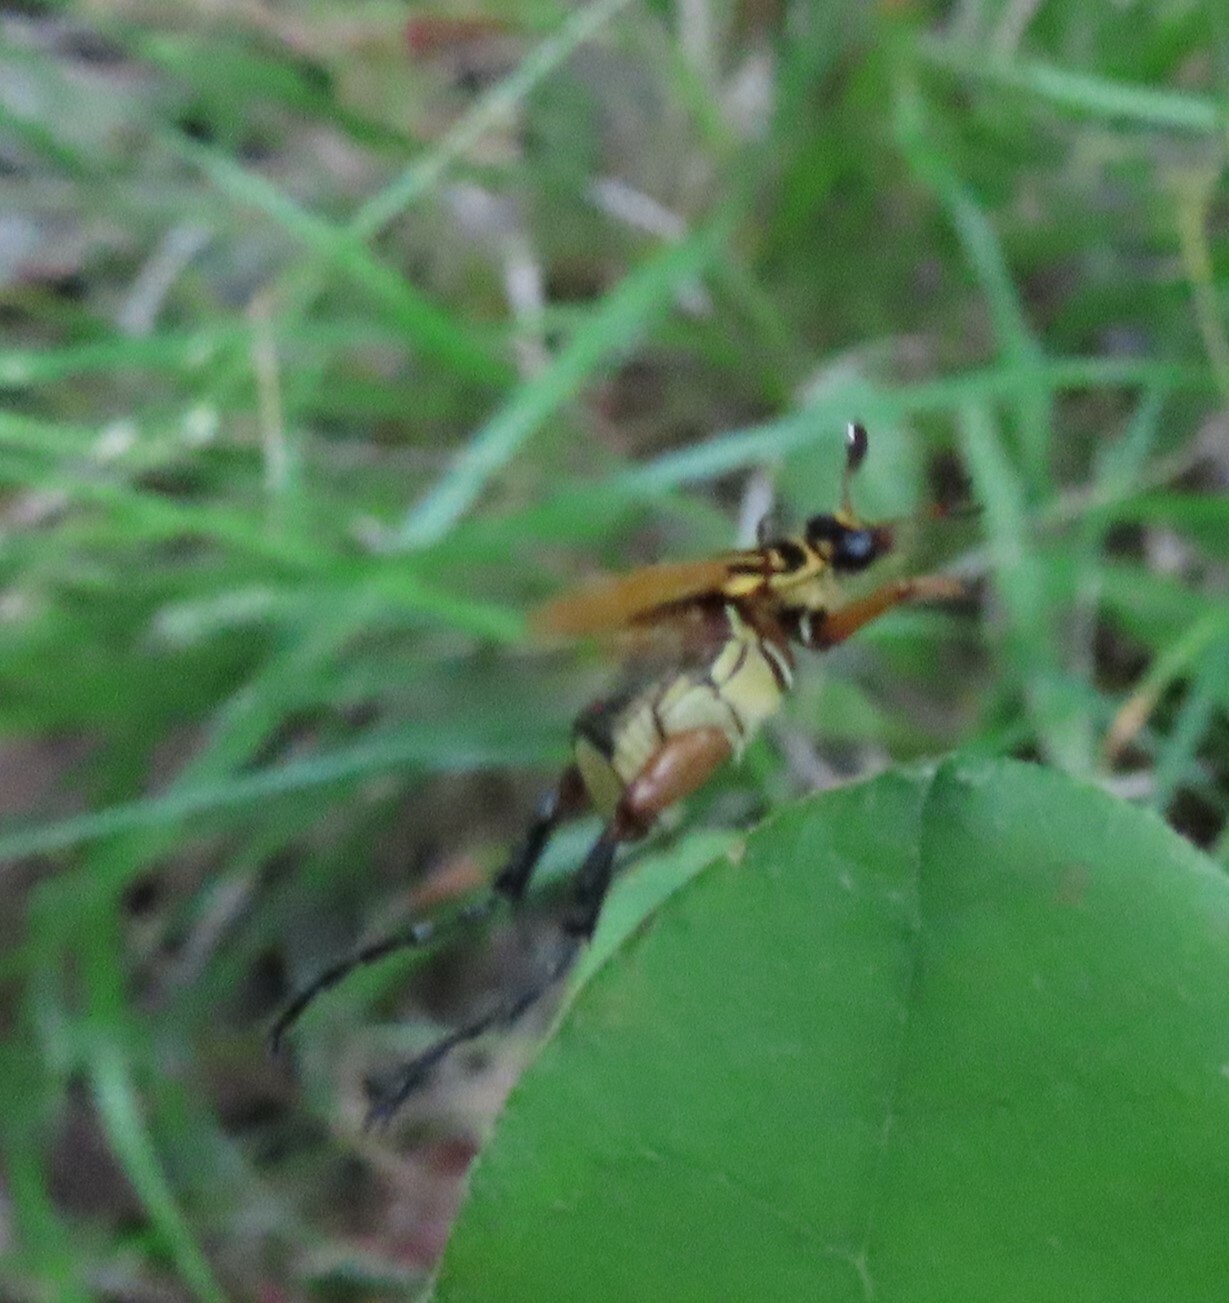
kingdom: Animalia
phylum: Arthropoda
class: Insecta
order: Coleoptera
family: Scarabaeidae
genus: Trigonopeltastes
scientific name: Trigonopeltastes delta
